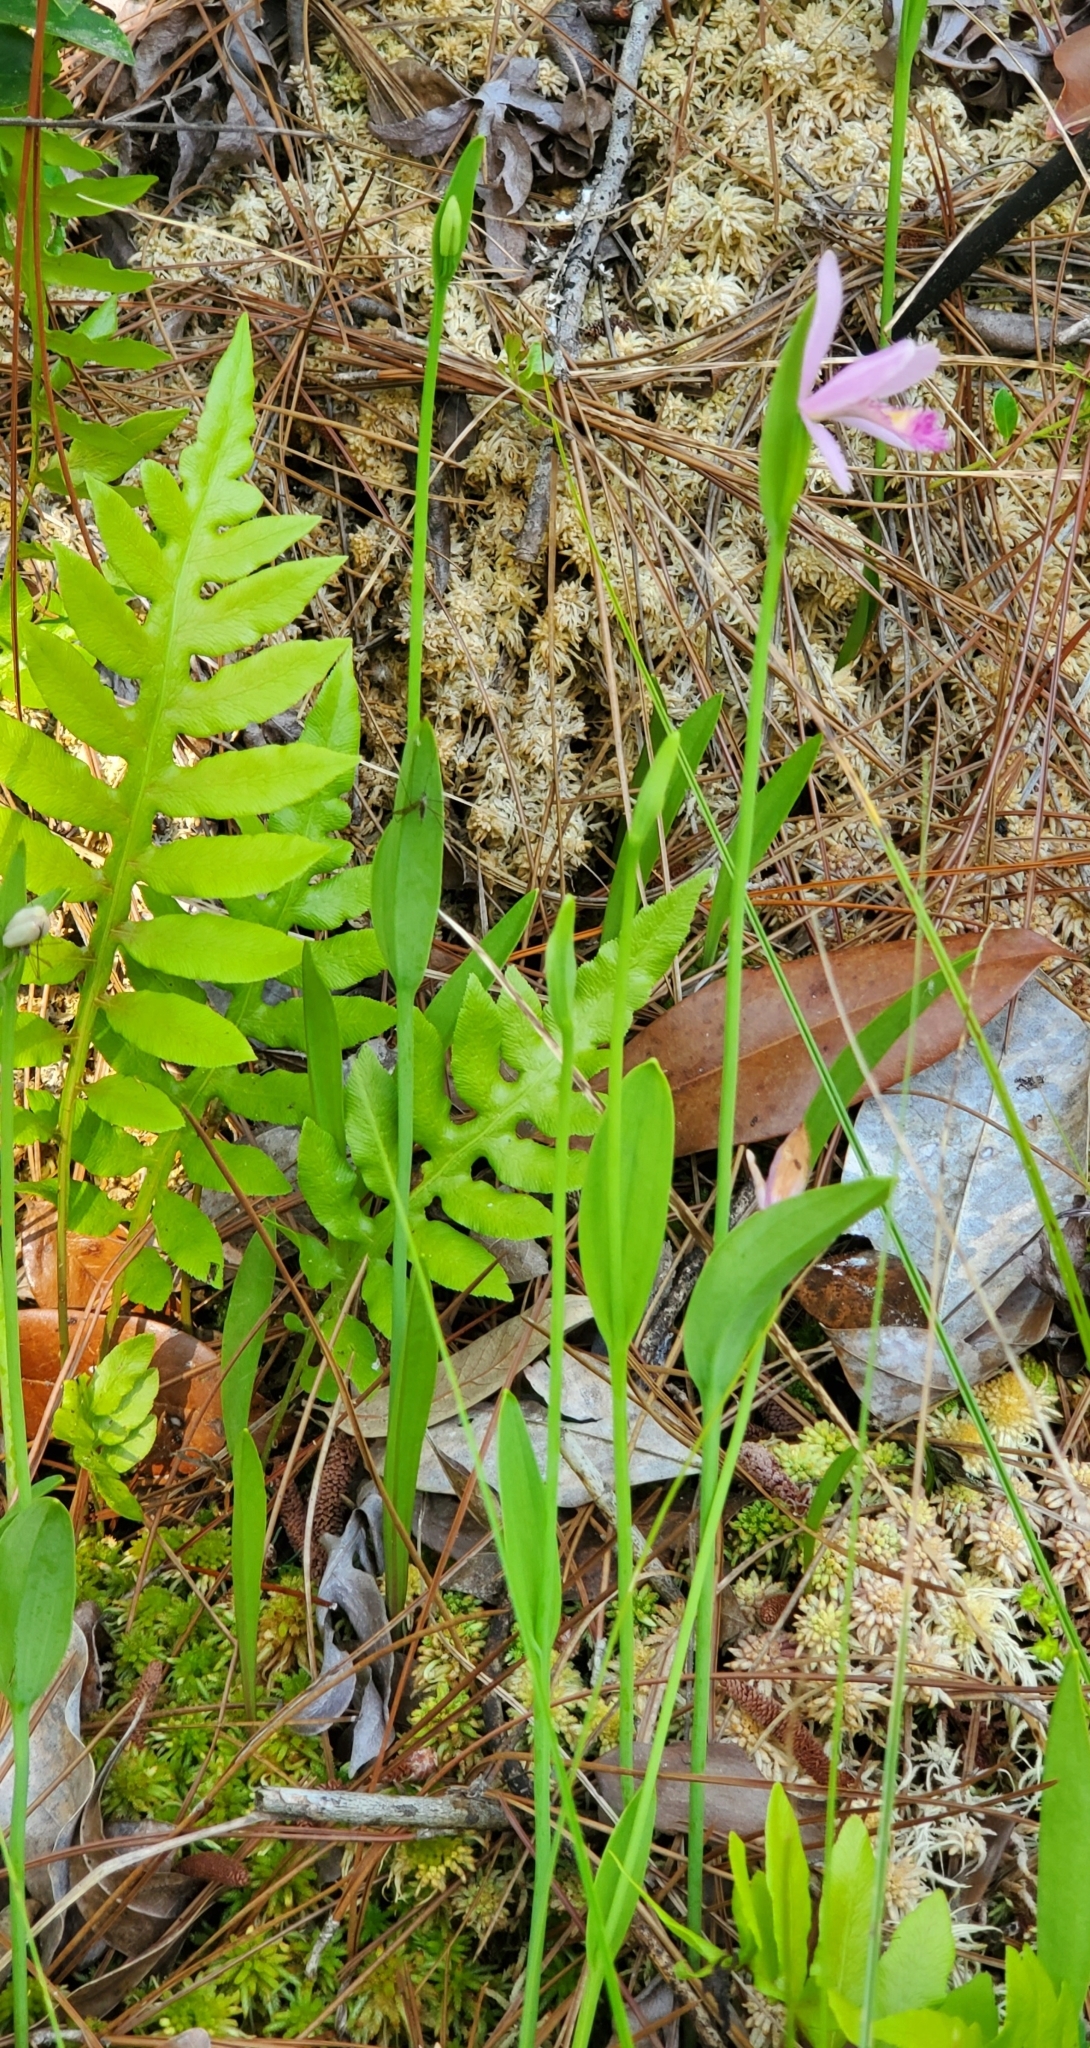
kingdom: Plantae
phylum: Tracheophyta
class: Liliopsida
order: Asparagales
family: Orchidaceae
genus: Pogonia
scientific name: Pogonia ophioglossoides
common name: Rose pogonia
